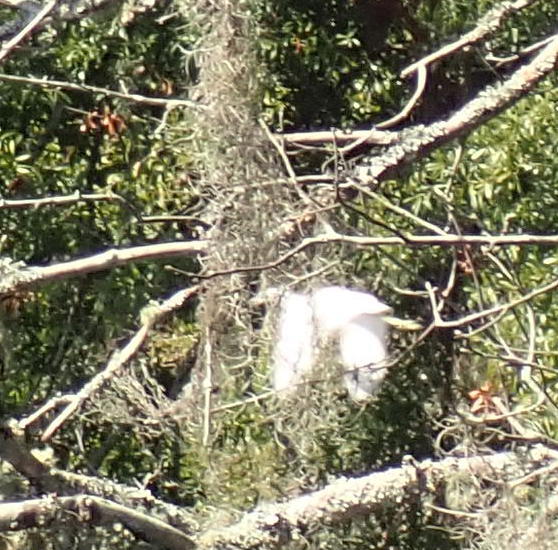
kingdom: Animalia
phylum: Chordata
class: Aves
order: Pelecaniformes
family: Ardeidae
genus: Egretta
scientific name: Egretta caerulea
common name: Little blue heron
